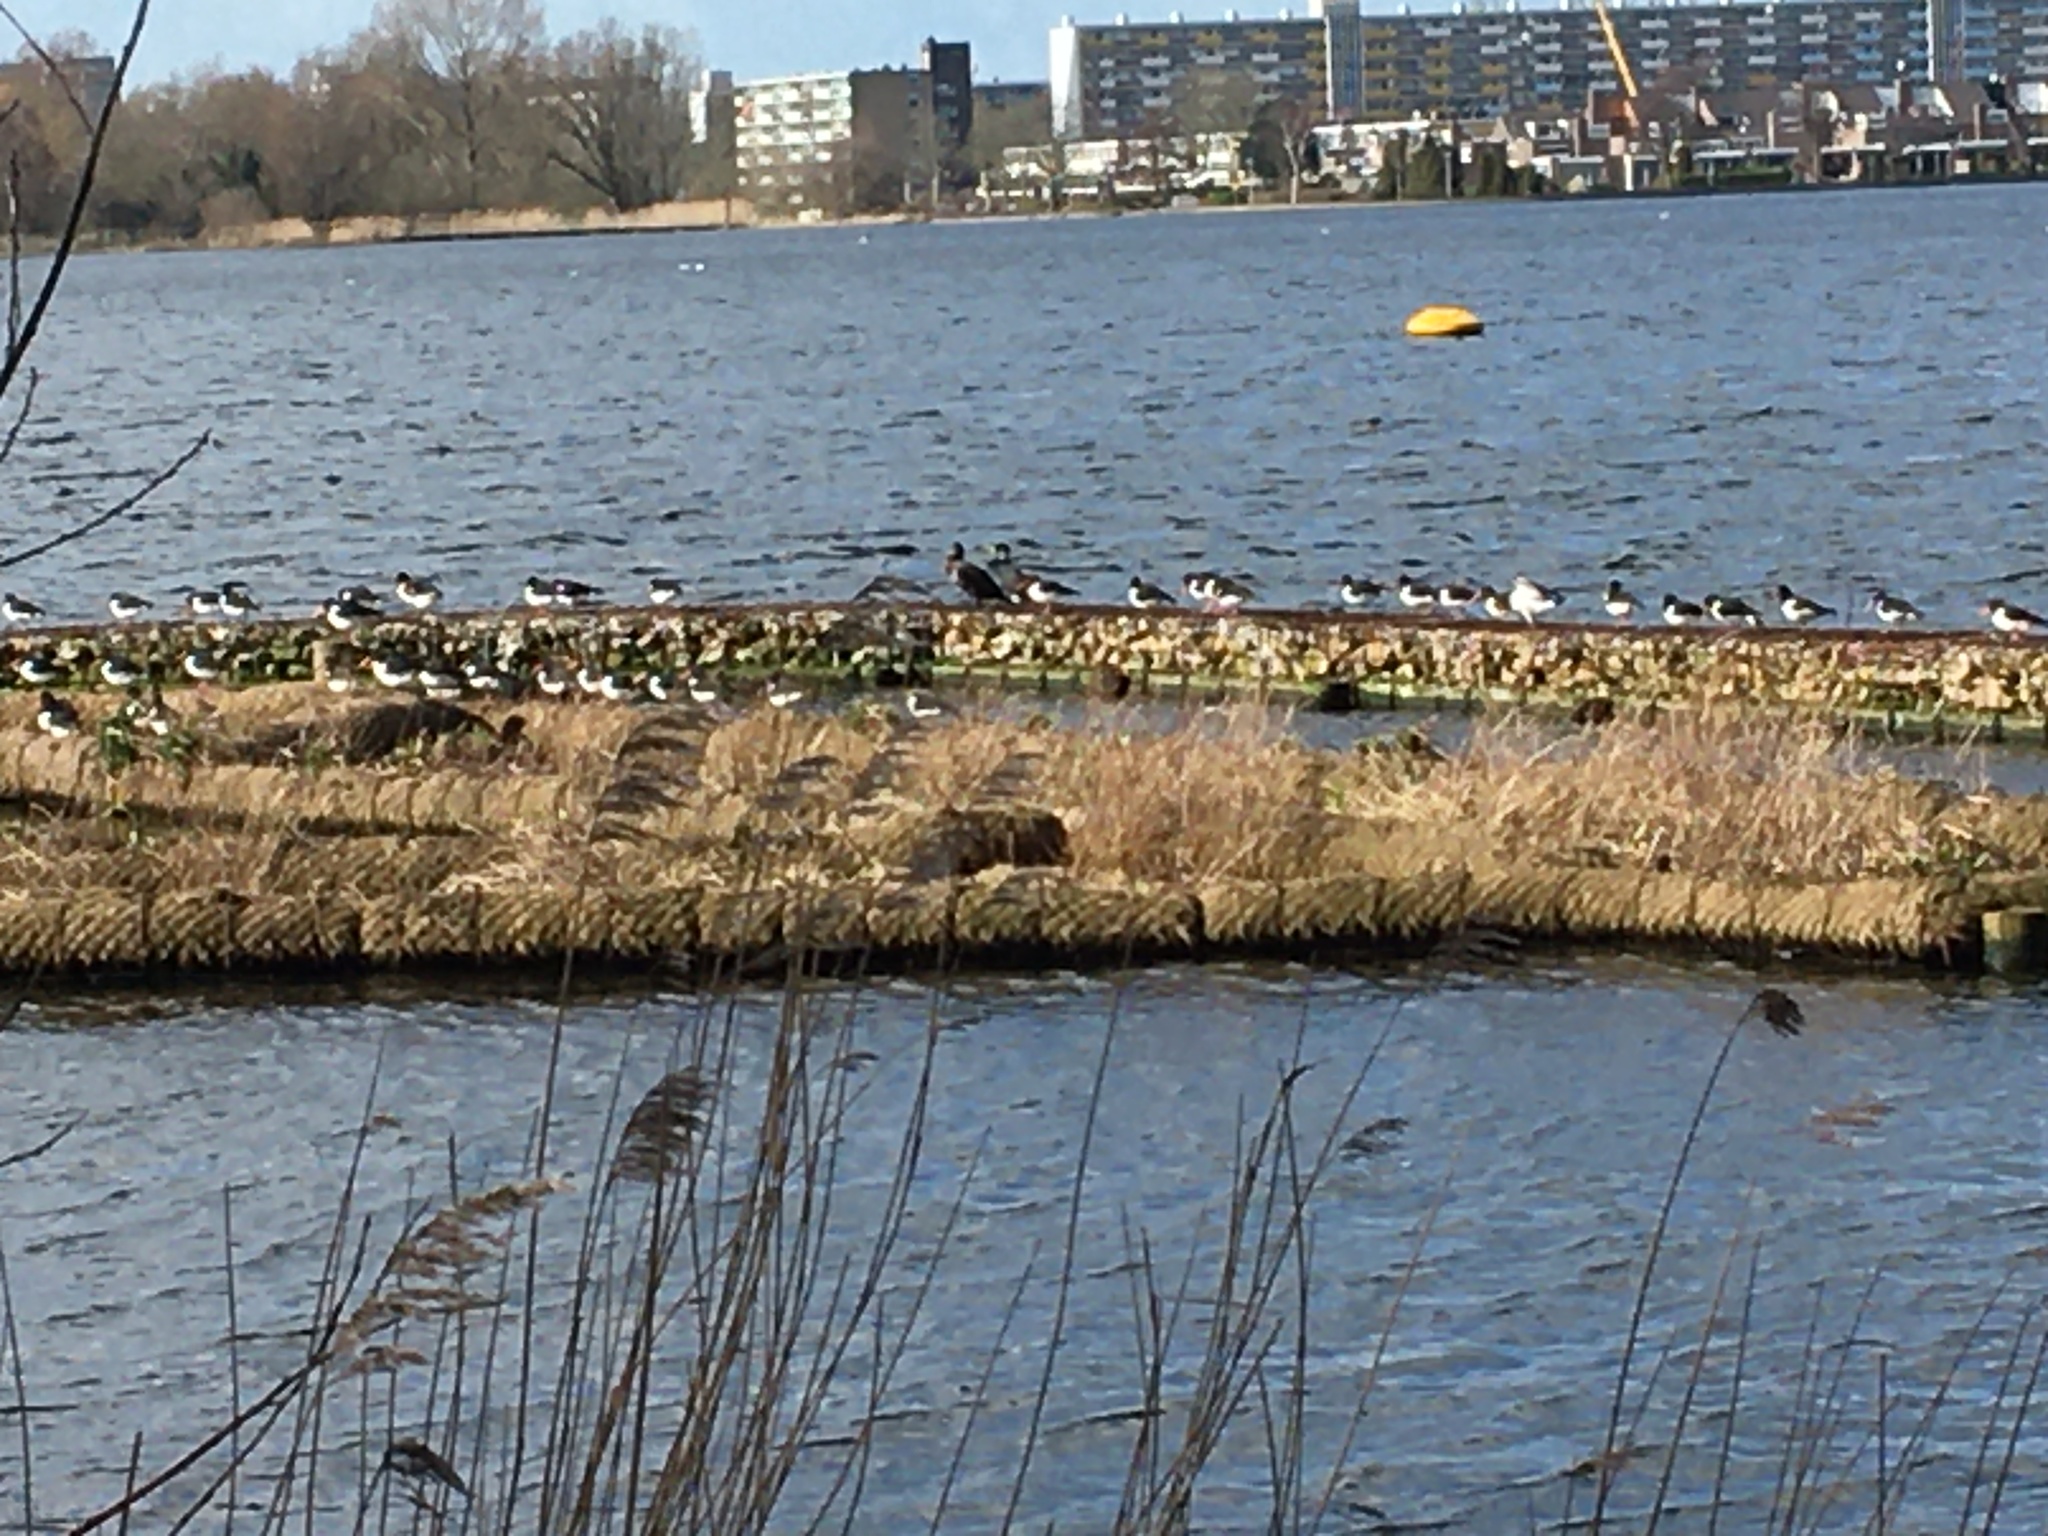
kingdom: Animalia
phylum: Chordata
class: Aves
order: Charadriiformes
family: Haematopodidae
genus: Haematopus
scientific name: Haematopus ostralegus
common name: Eurasian oystercatcher
